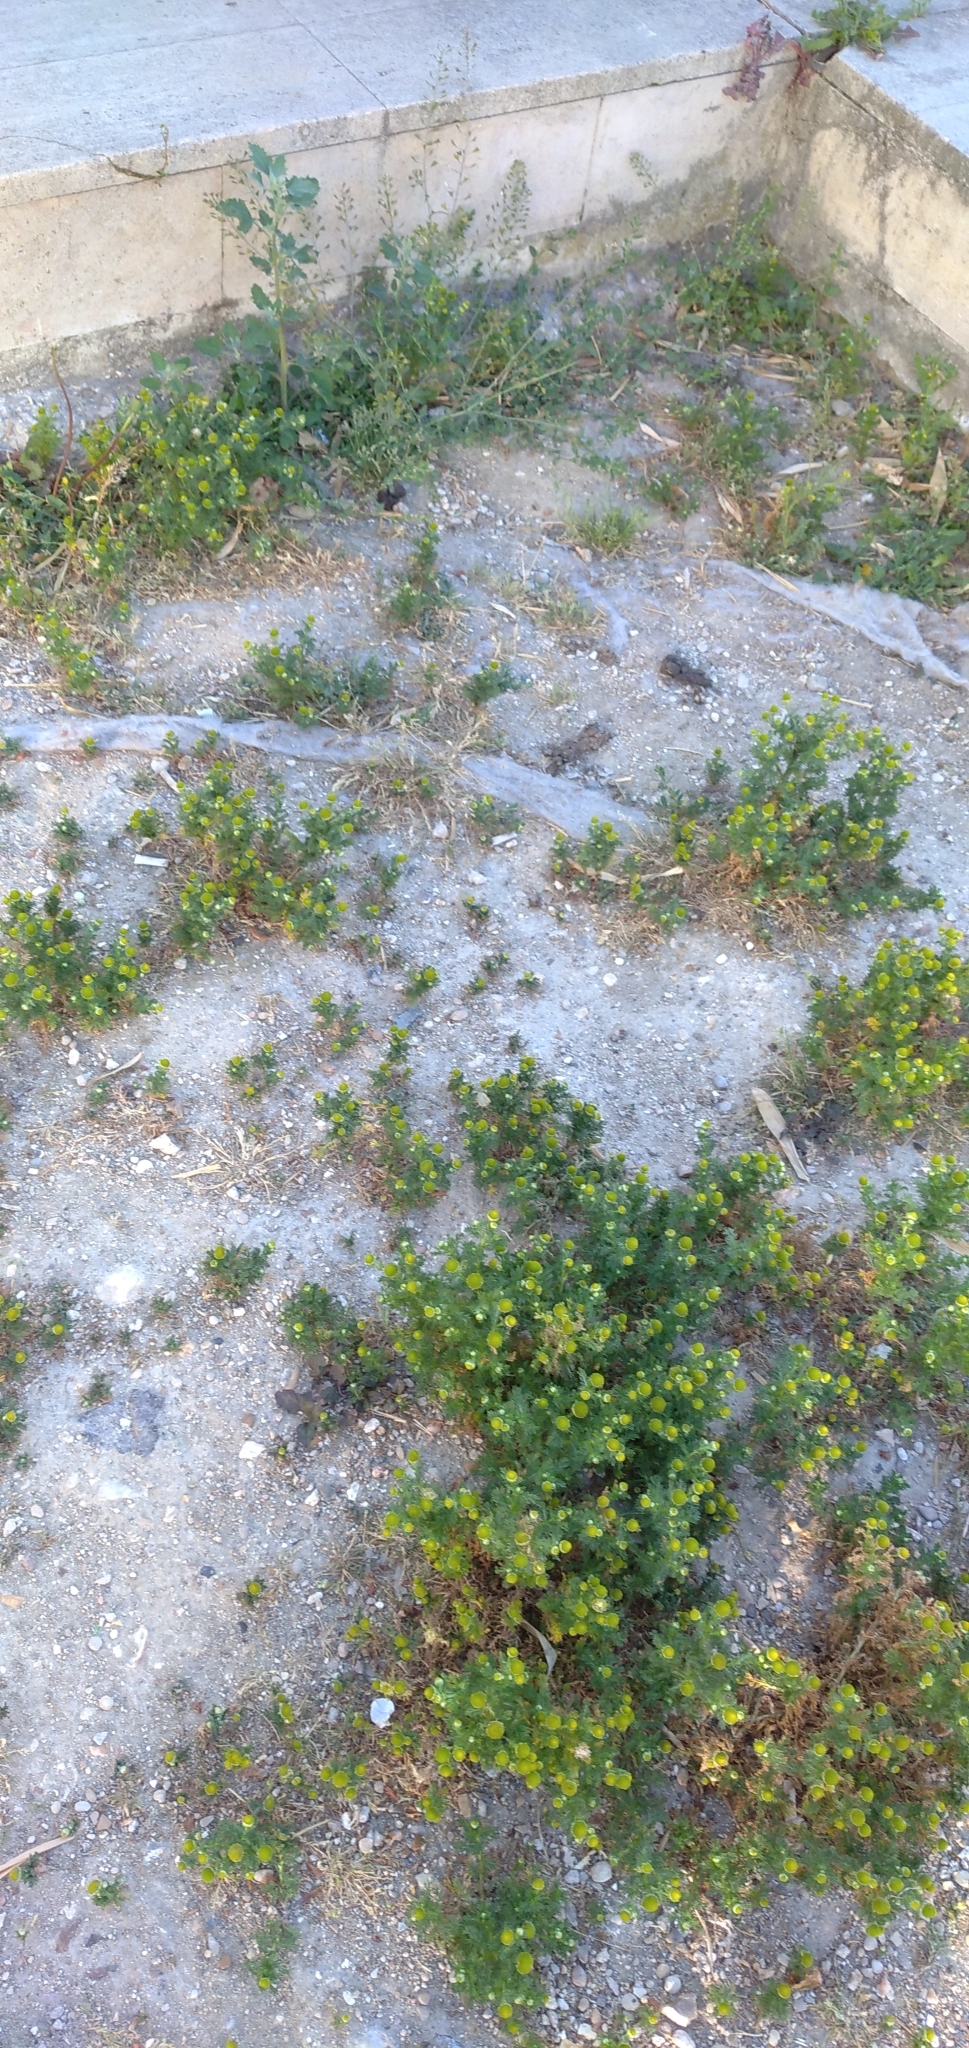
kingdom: Plantae
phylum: Tracheophyta
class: Magnoliopsida
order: Asterales
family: Asteraceae
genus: Matricaria
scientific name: Matricaria discoidea
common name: Disc mayweed
